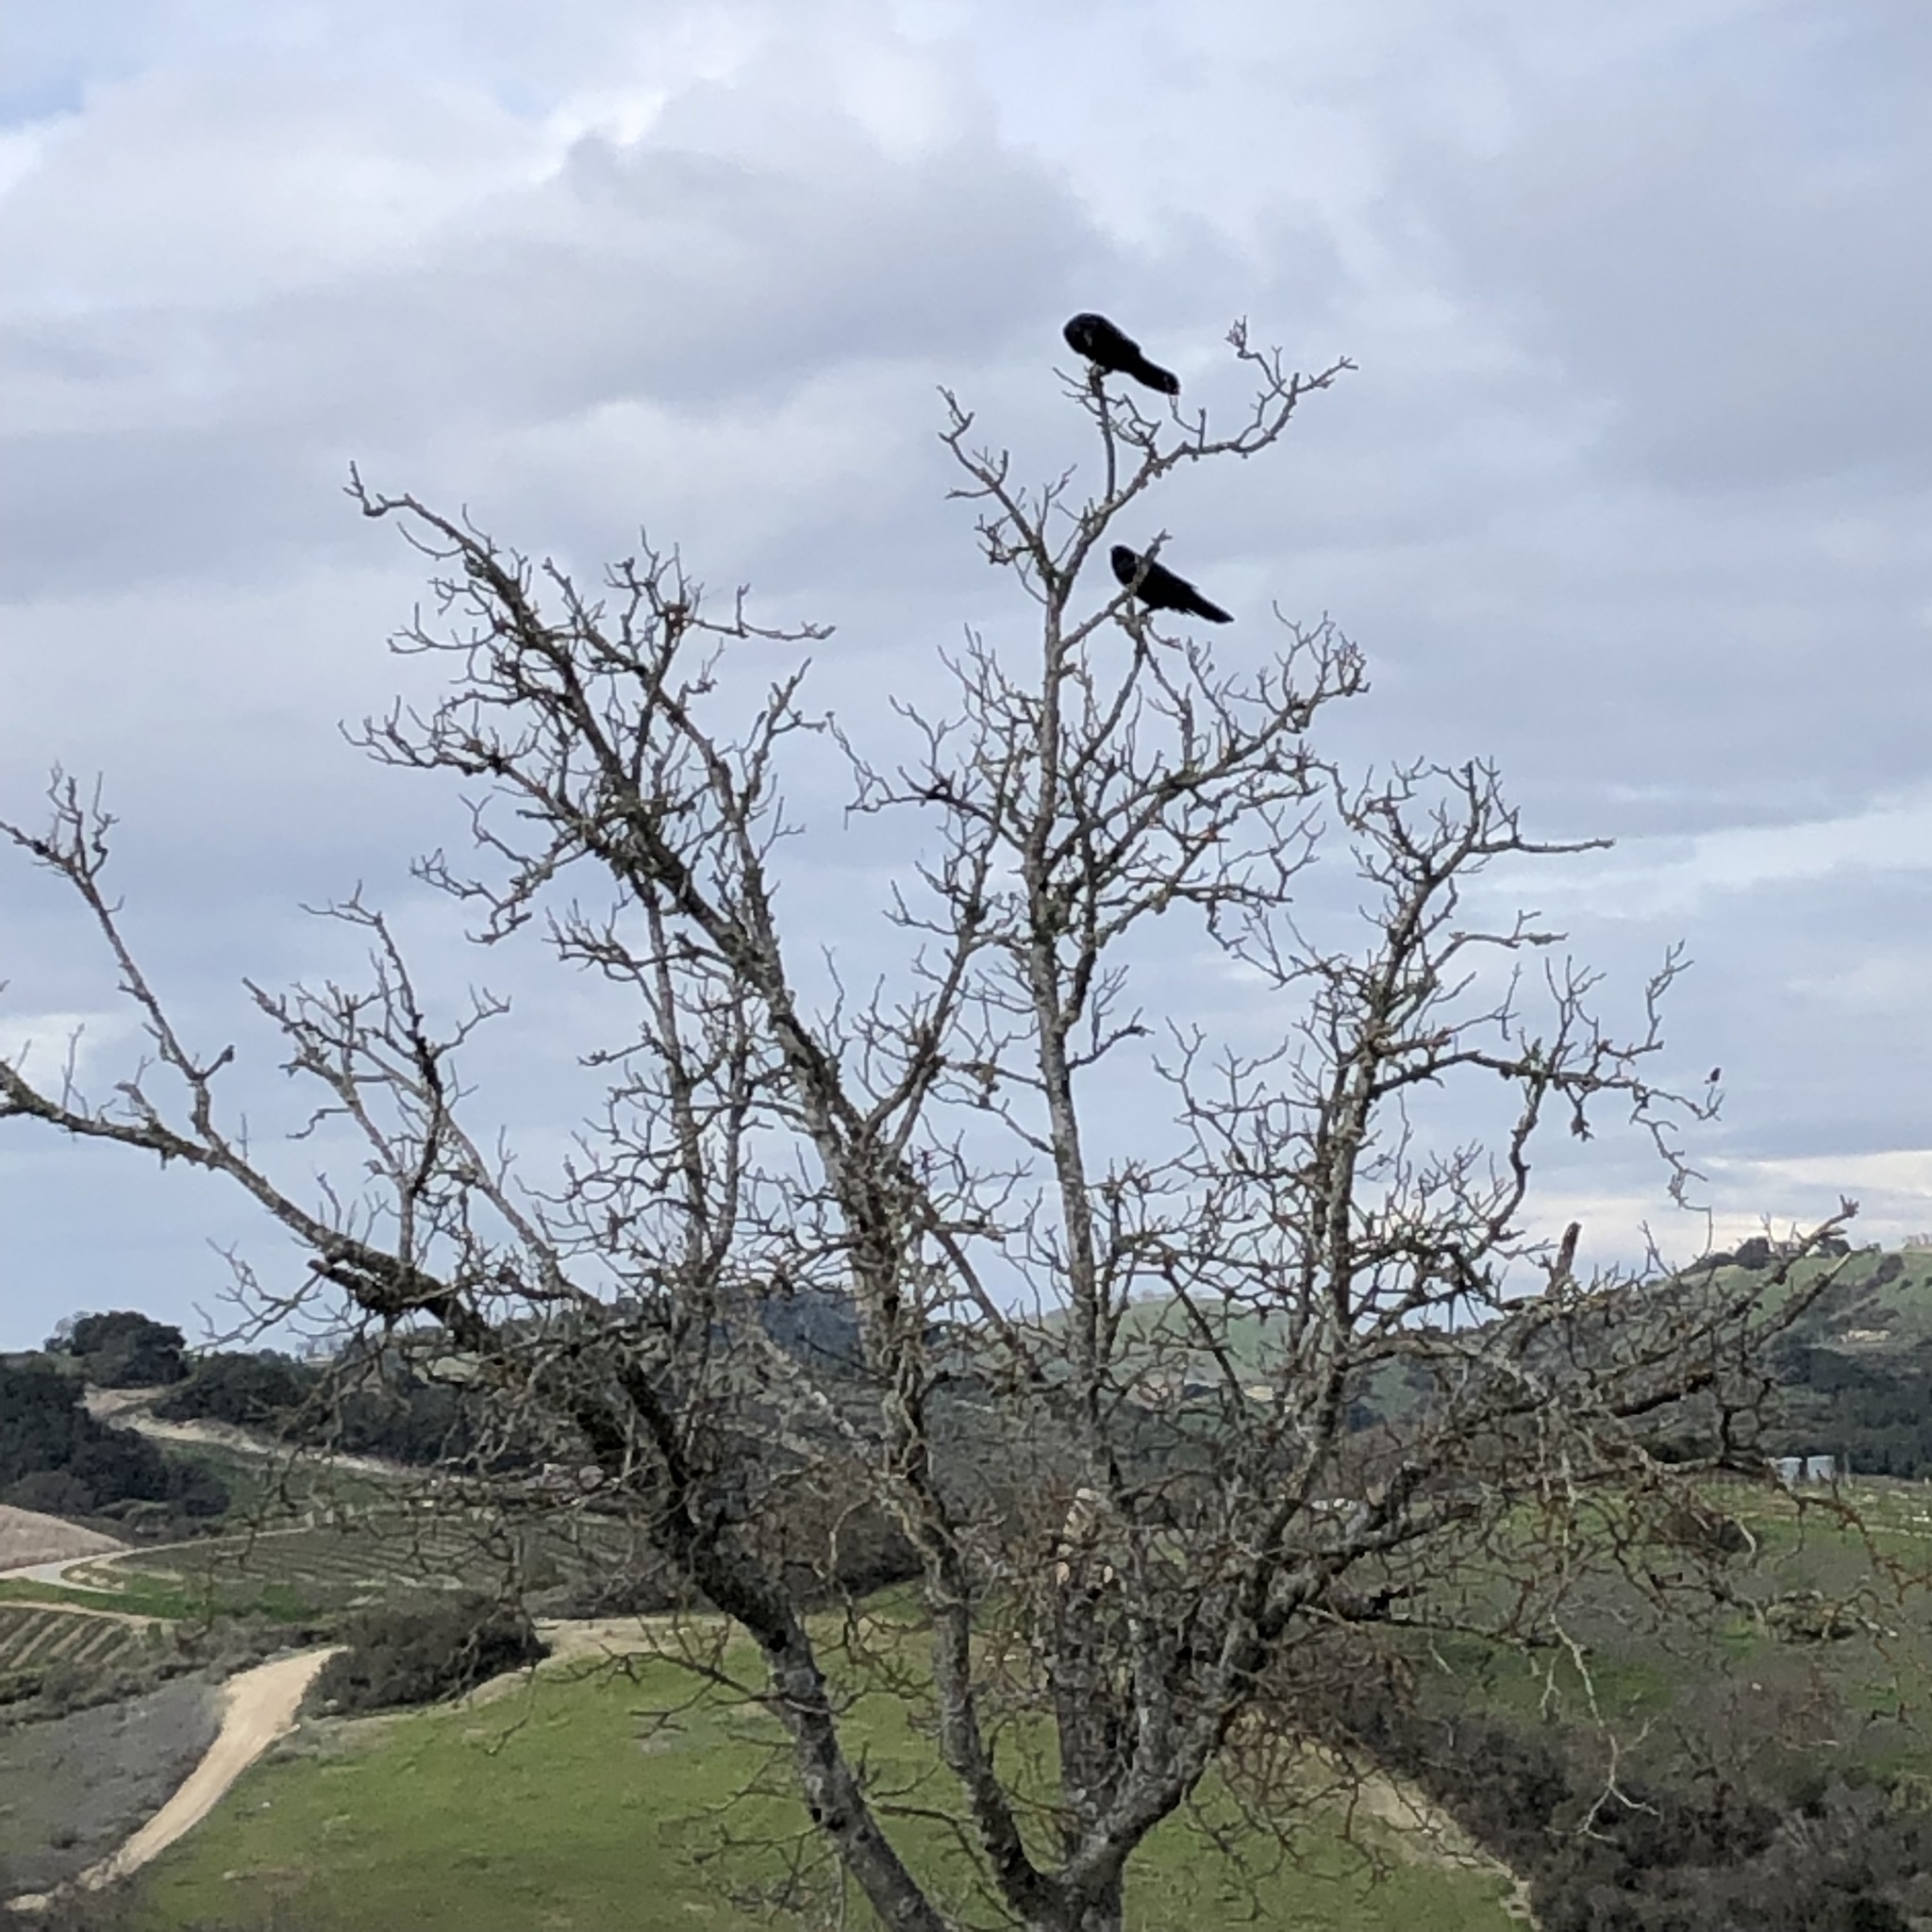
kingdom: Animalia
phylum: Chordata
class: Aves
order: Passeriformes
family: Corvidae
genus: Corvus
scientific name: Corvus corax
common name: Common raven
